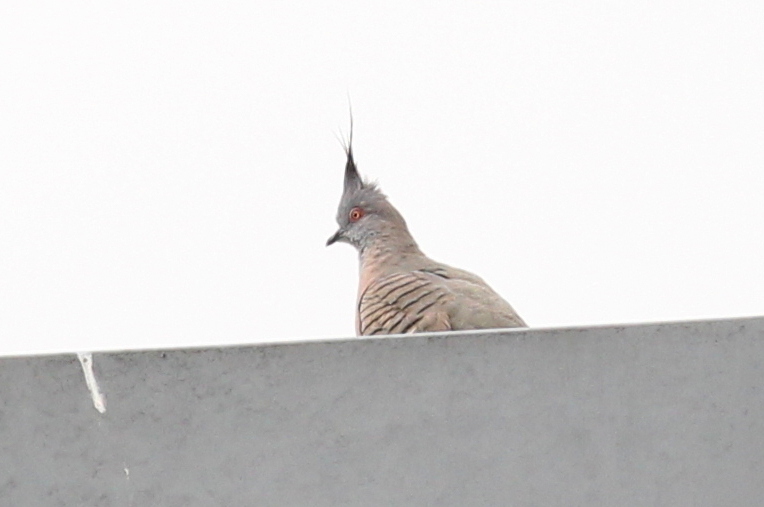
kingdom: Animalia
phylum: Chordata
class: Aves
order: Columbiformes
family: Columbidae
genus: Ocyphaps
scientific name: Ocyphaps lophotes
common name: Crested pigeon
